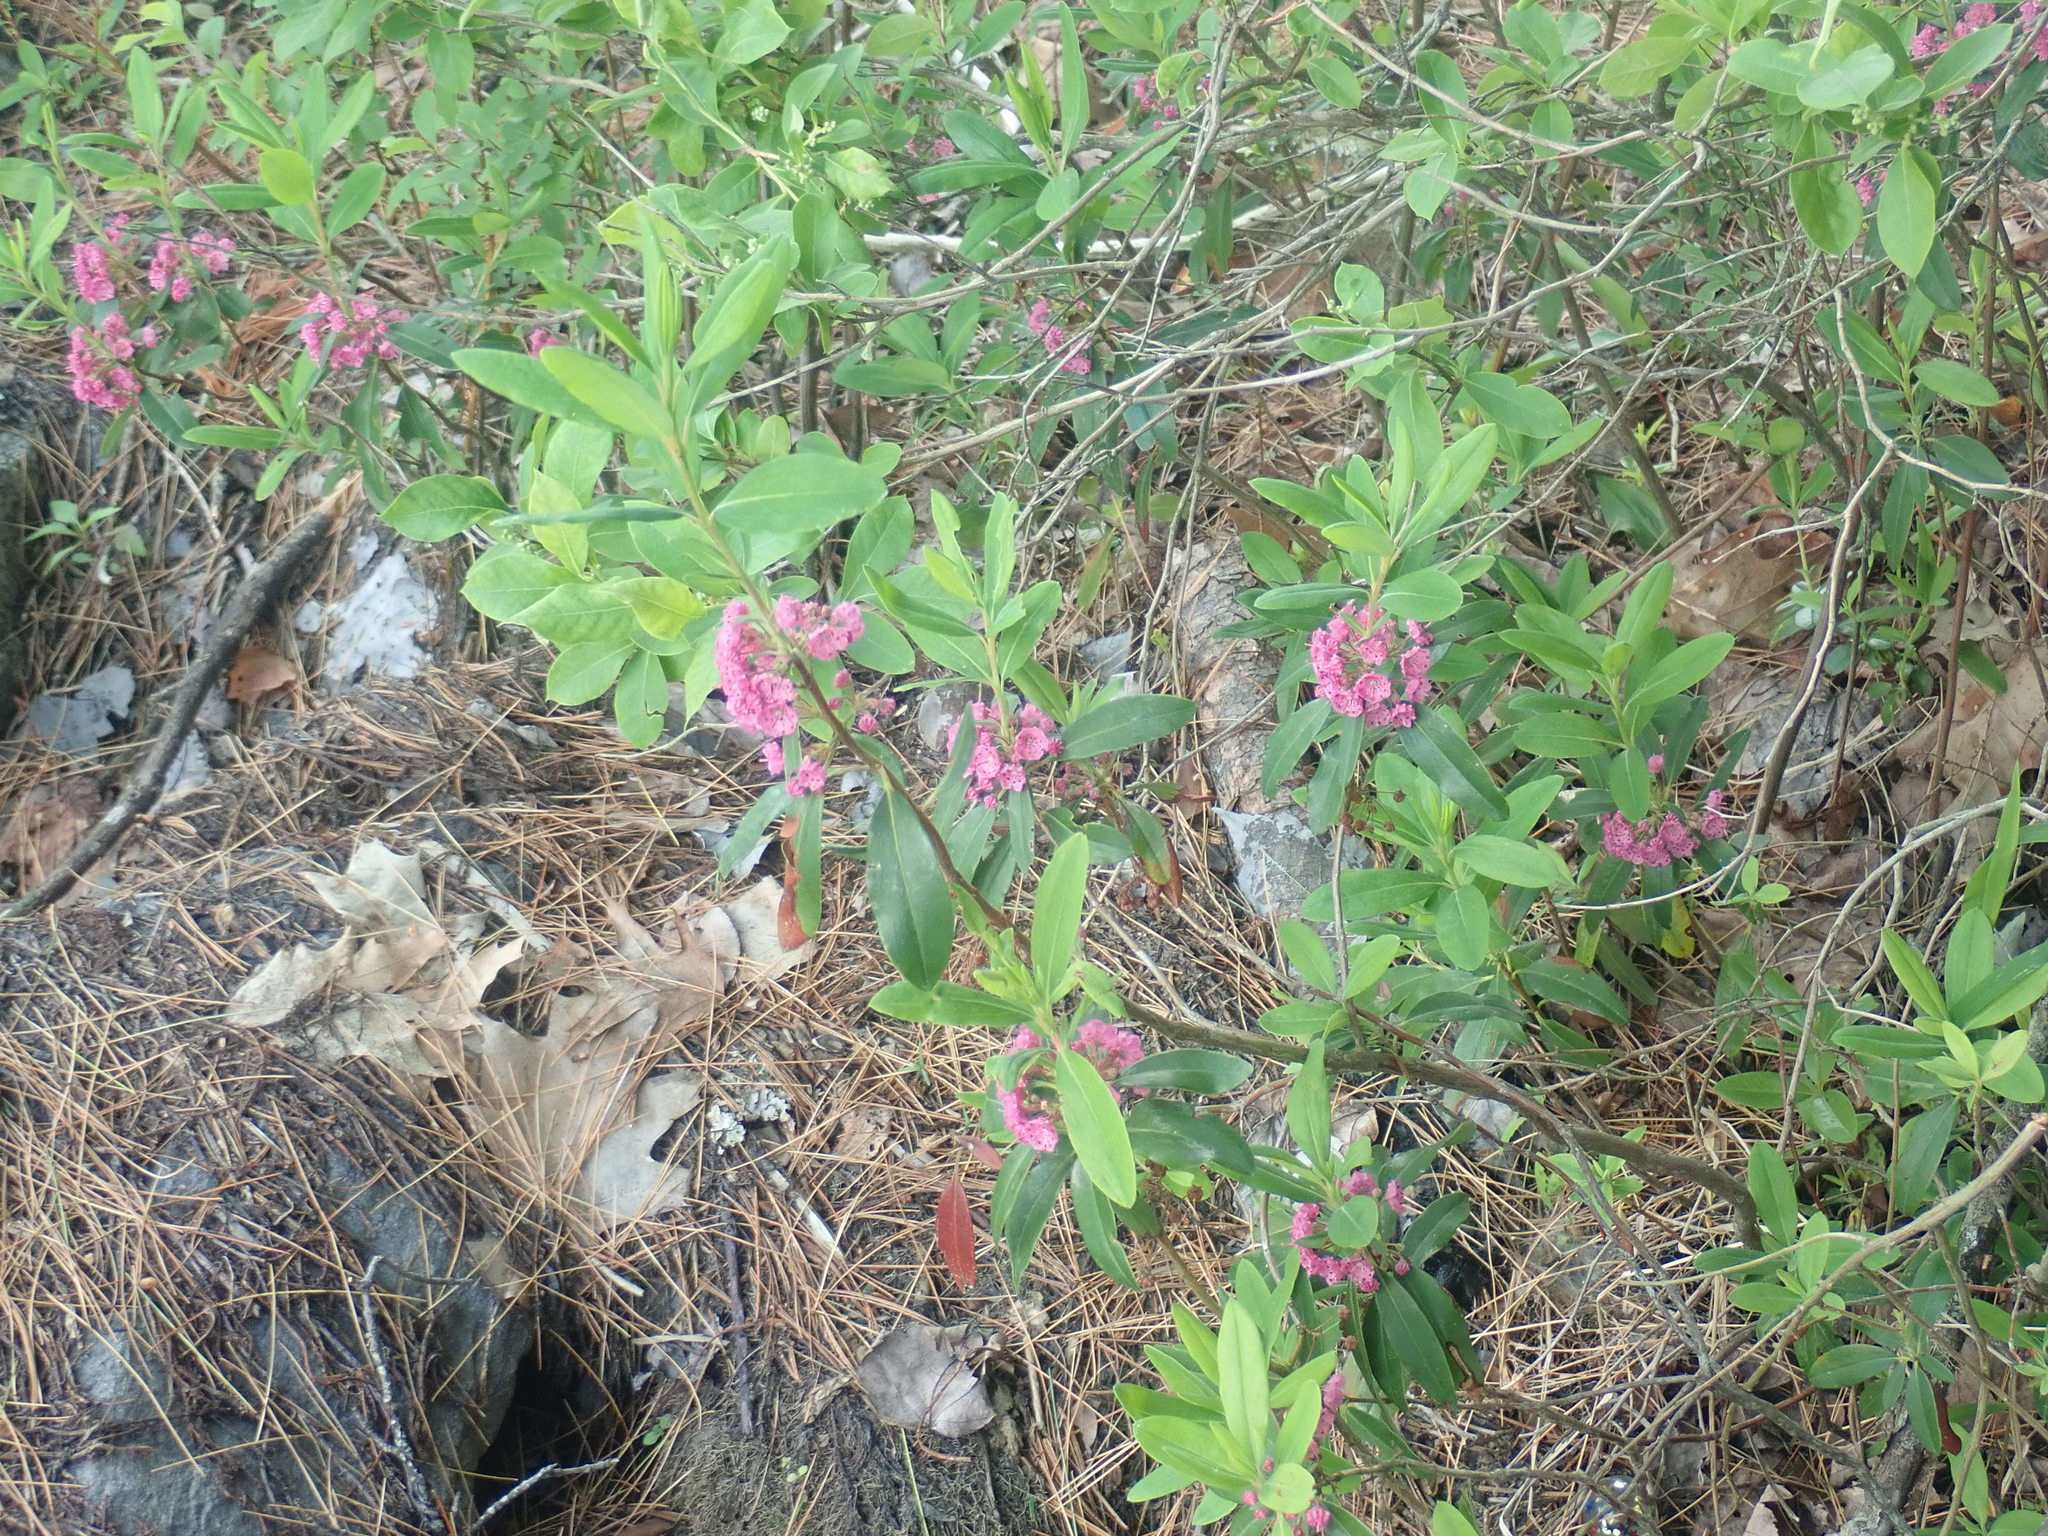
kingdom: Plantae
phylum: Tracheophyta
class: Magnoliopsida
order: Ericales
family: Ericaceae
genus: Kalmia
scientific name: Kalmia angustifolia
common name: Sheep-laurel
